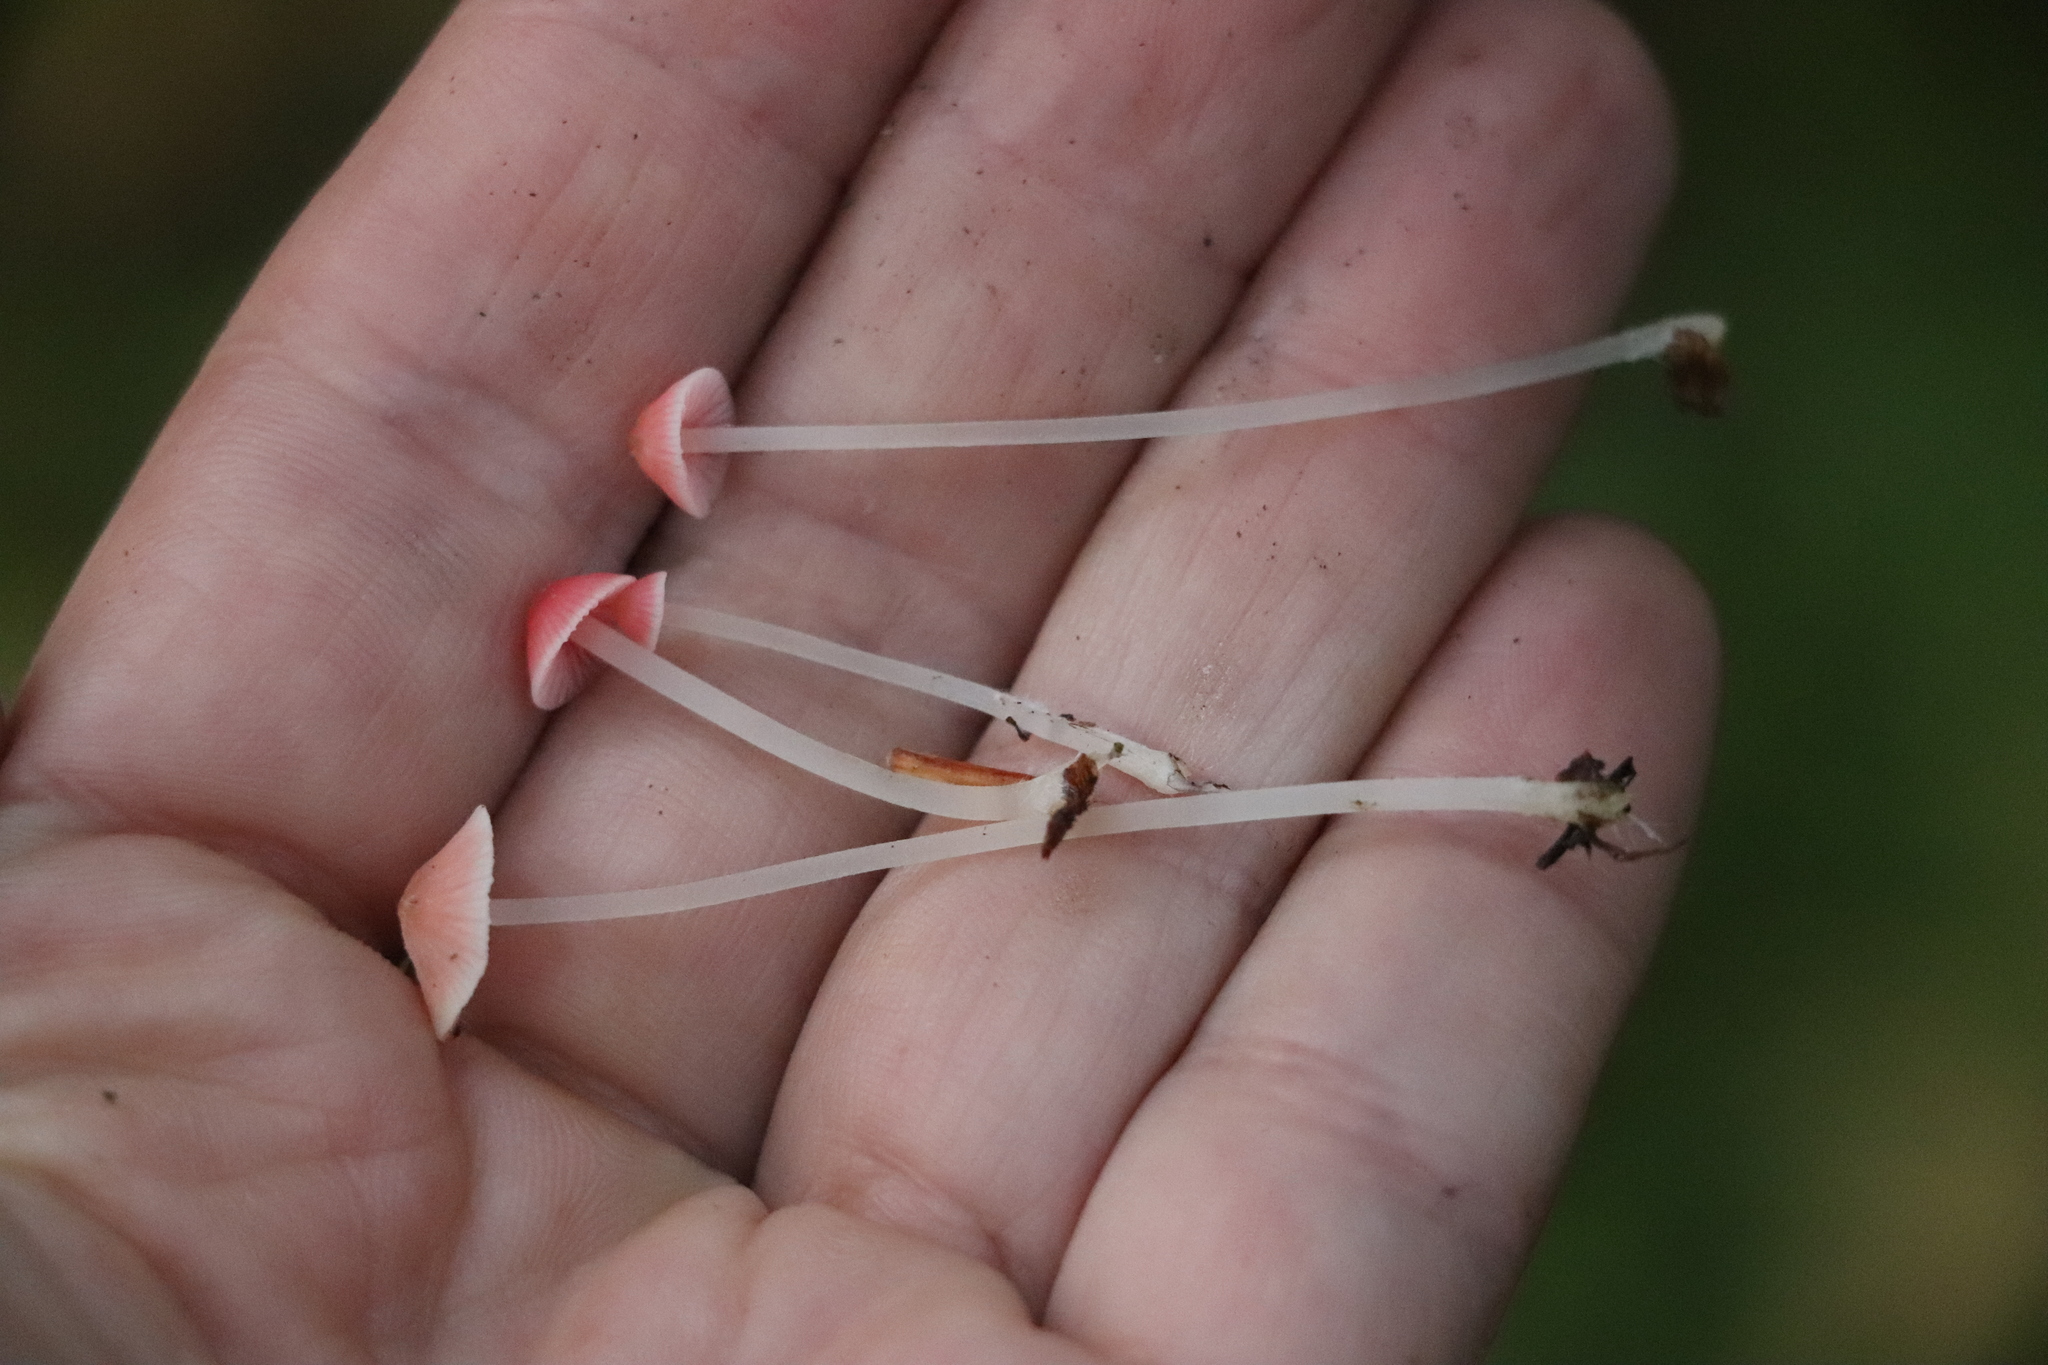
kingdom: Fungi
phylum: Basidiomycota
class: Agaricomycetes
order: Agaricales
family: Mycenaceae
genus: Atheniella
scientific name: Atheniella adonis
